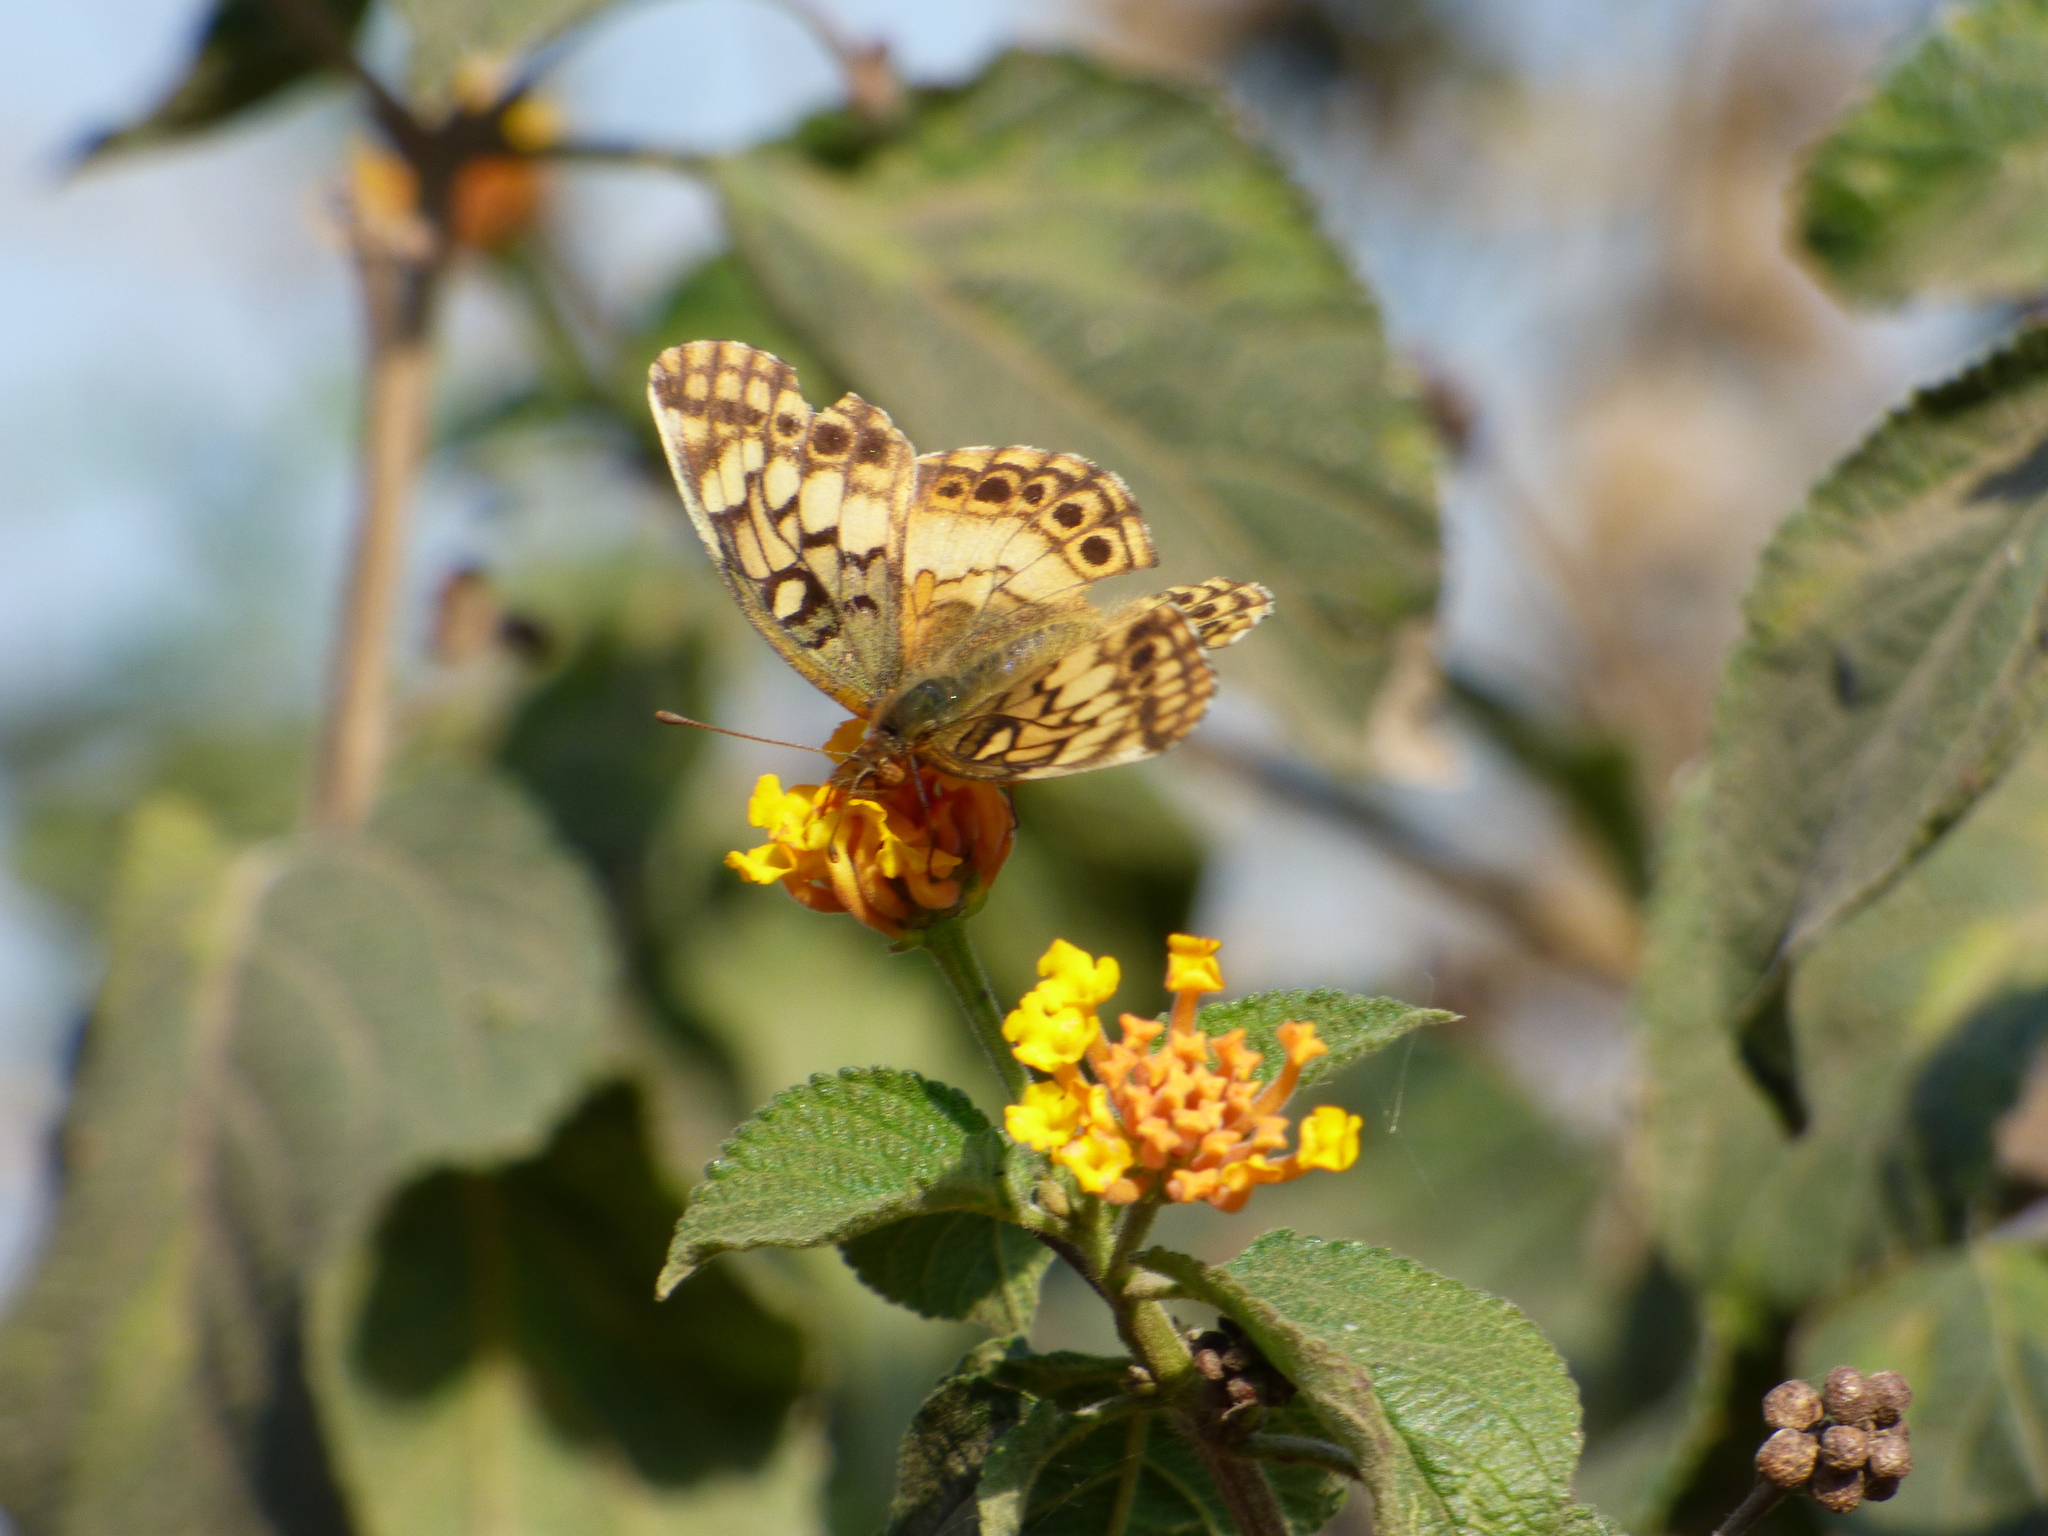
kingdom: Animalia
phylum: Arthropoda
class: Insecta
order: Lepidoptera
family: Nymphalidae
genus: Euptoieta
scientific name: Euptoieta hortensia
